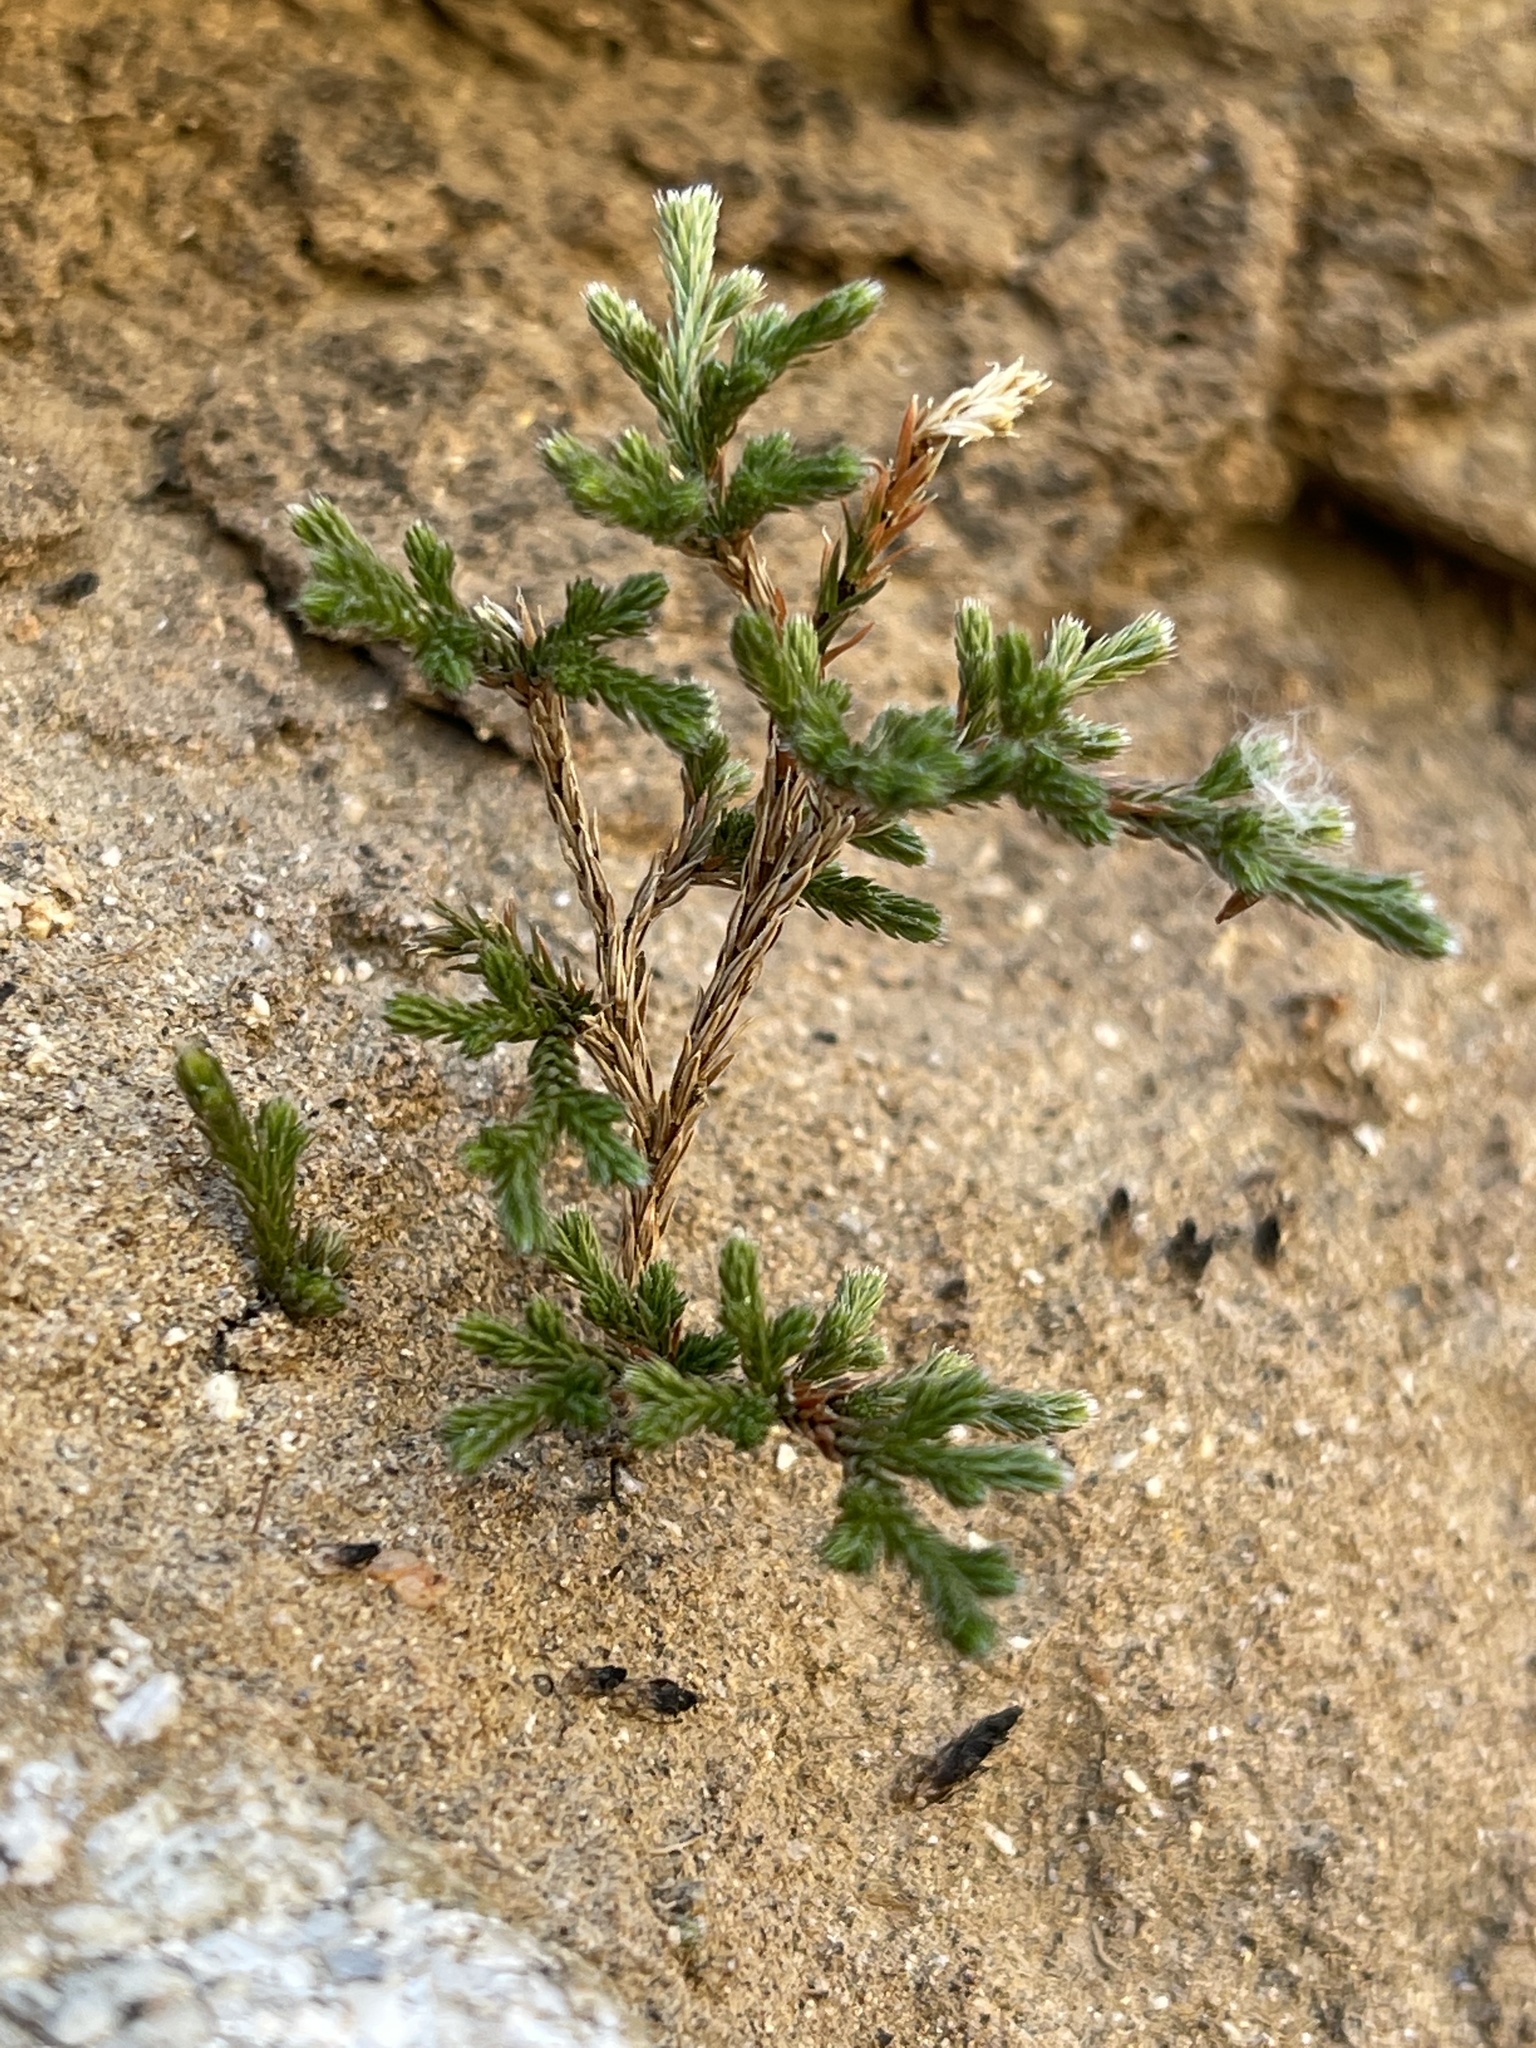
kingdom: Plantae
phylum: Tracheophyta
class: Lycopodiopsida
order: Selaginellales
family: Selaginellaceae
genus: Selaginella
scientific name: Selaginella bigelovii
